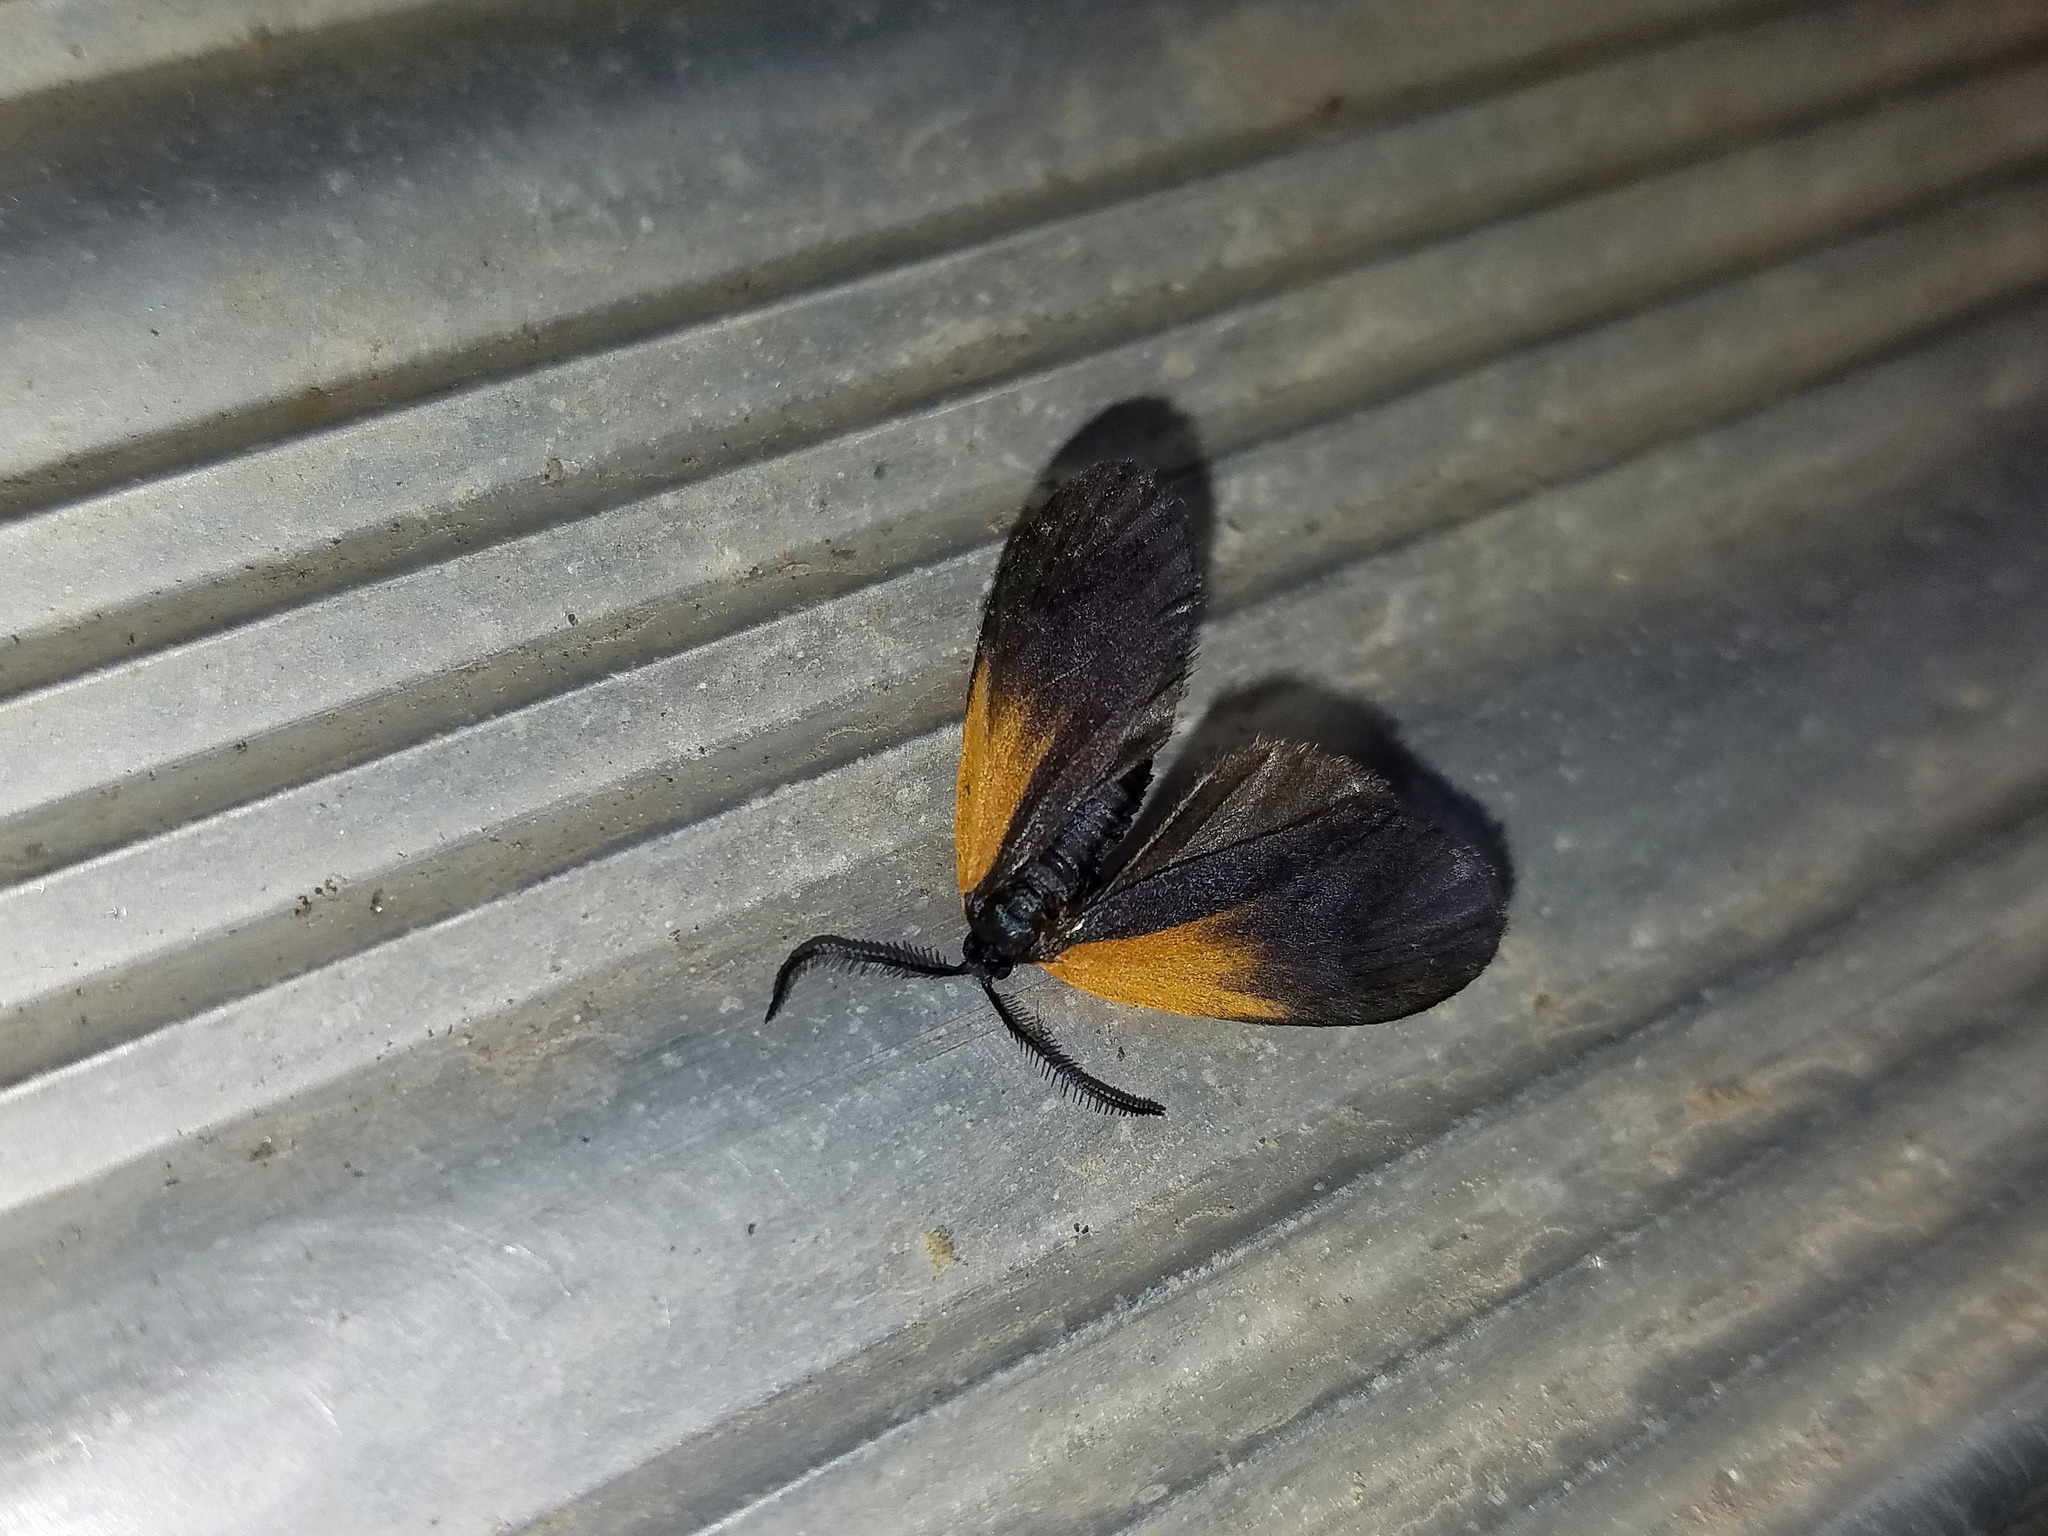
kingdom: Animalia
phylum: Arthropoda
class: Insecta
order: Lepidoptera
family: Zygaenidae
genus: Malthaca
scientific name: Malthaca dimidiata
